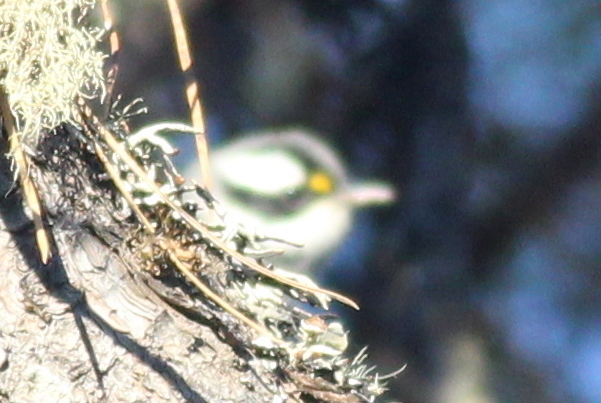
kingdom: Animalia
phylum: Chordata
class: Aves
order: Passeriformes
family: Parulidae
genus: Setophaga
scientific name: Setophaga nigrescens
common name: Black-throated gray warbler
